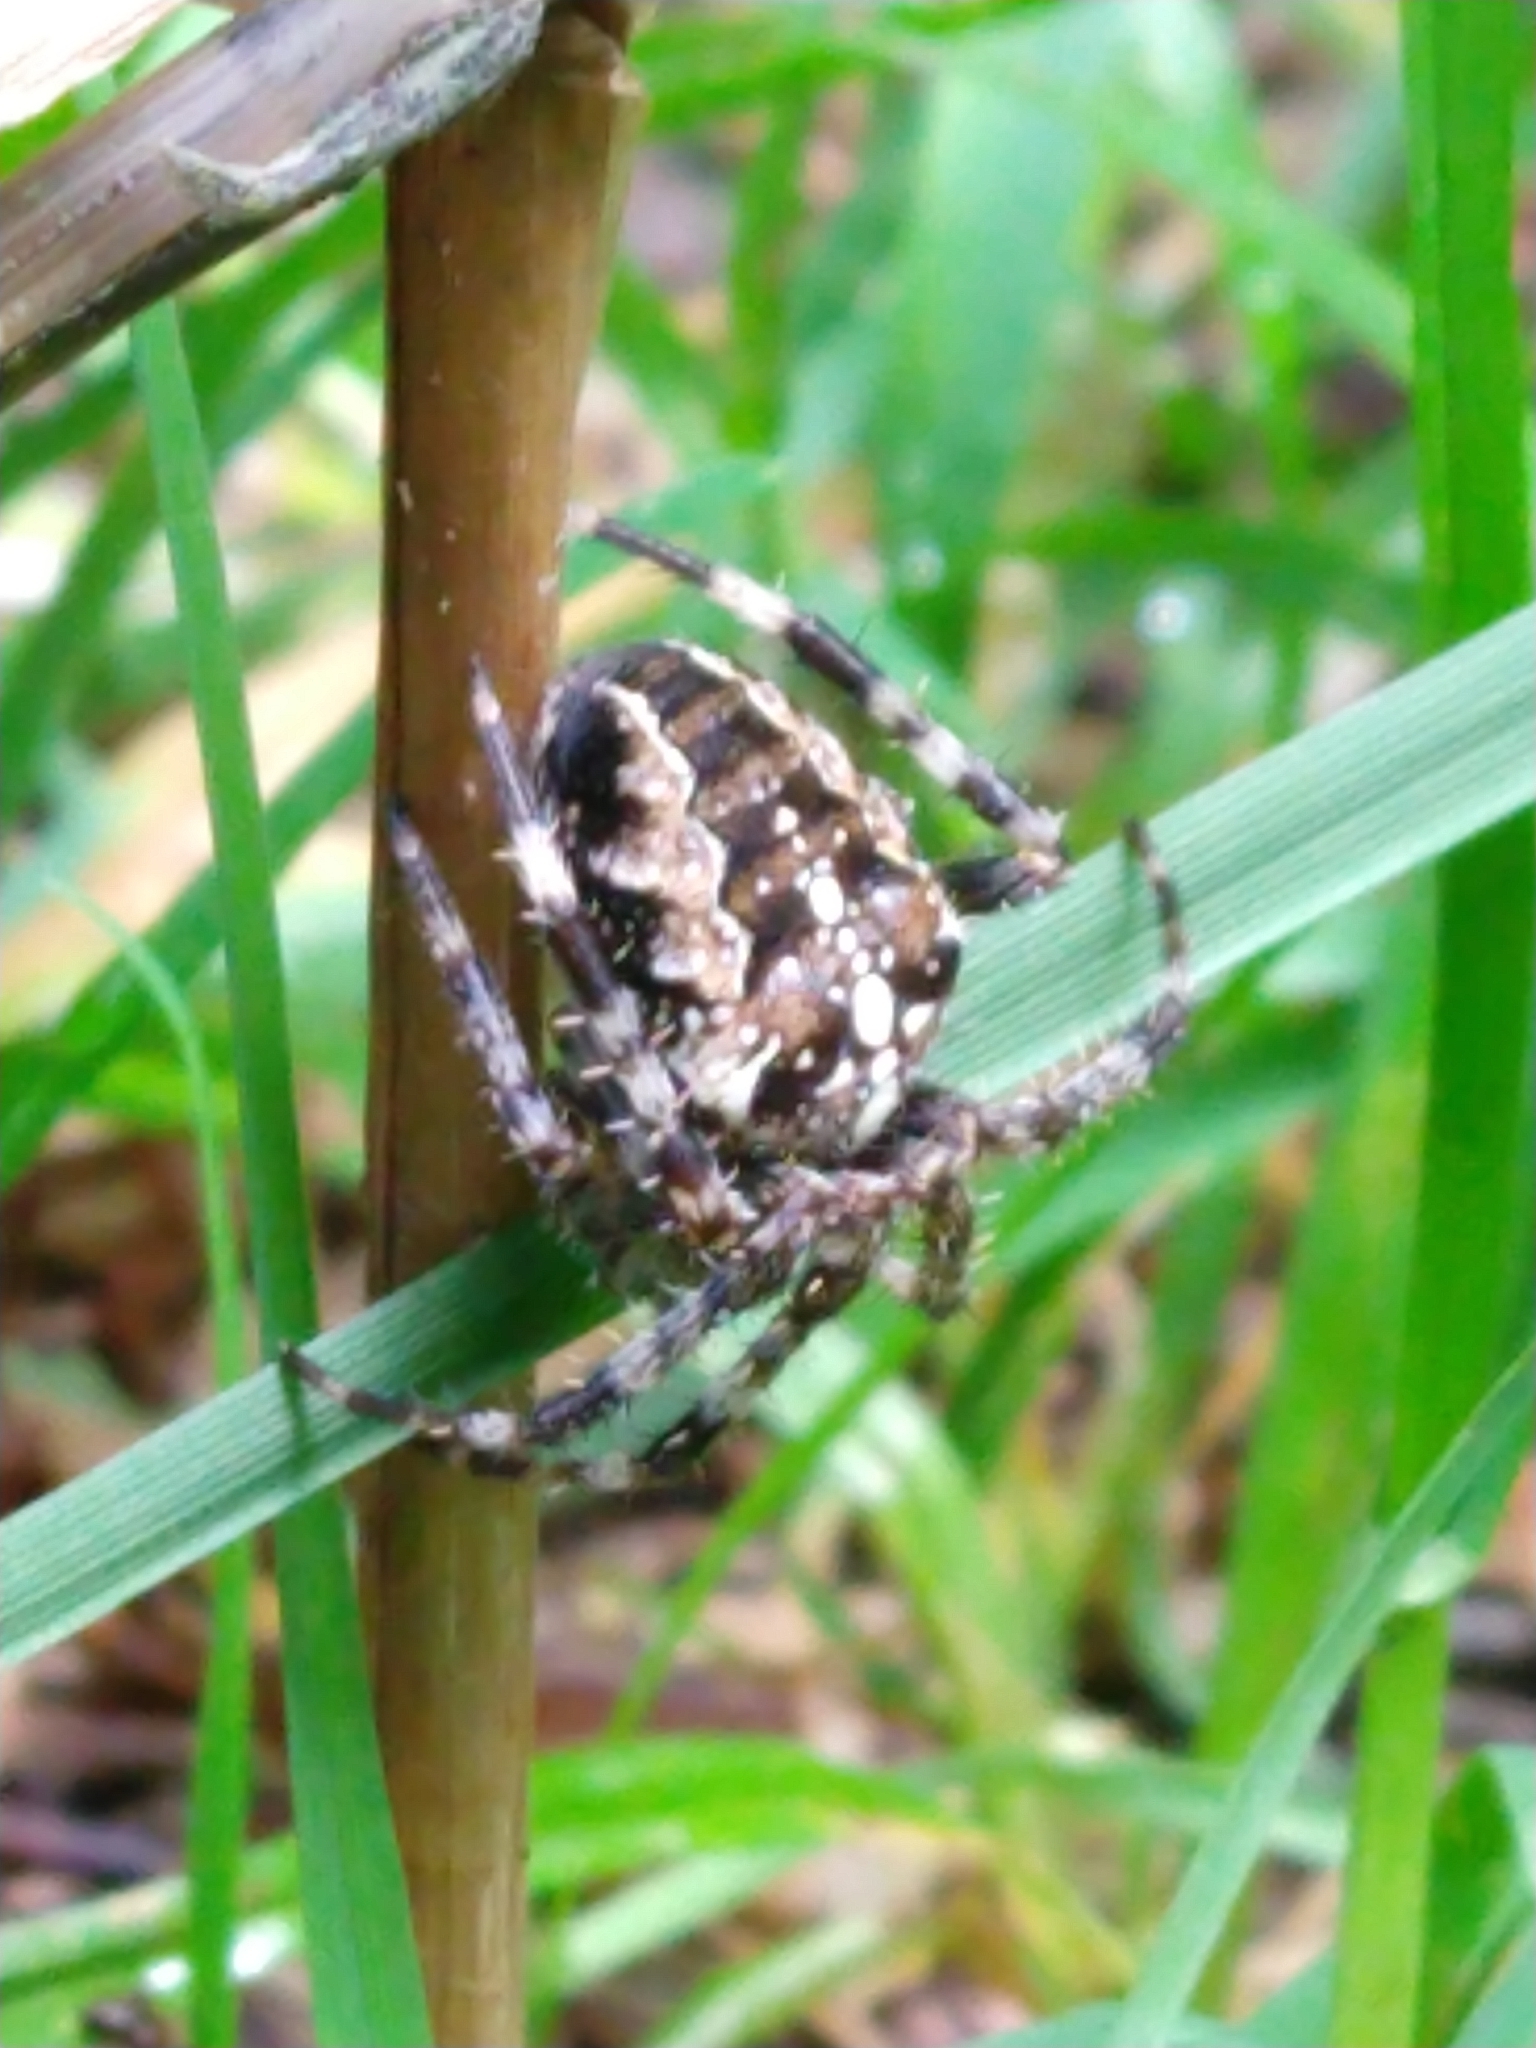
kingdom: Animalia
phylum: Arthropoda
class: Arachnida
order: Araneae
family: Araneidae
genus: Araneus
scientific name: Araneus diadematus
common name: Cross orbweaver
